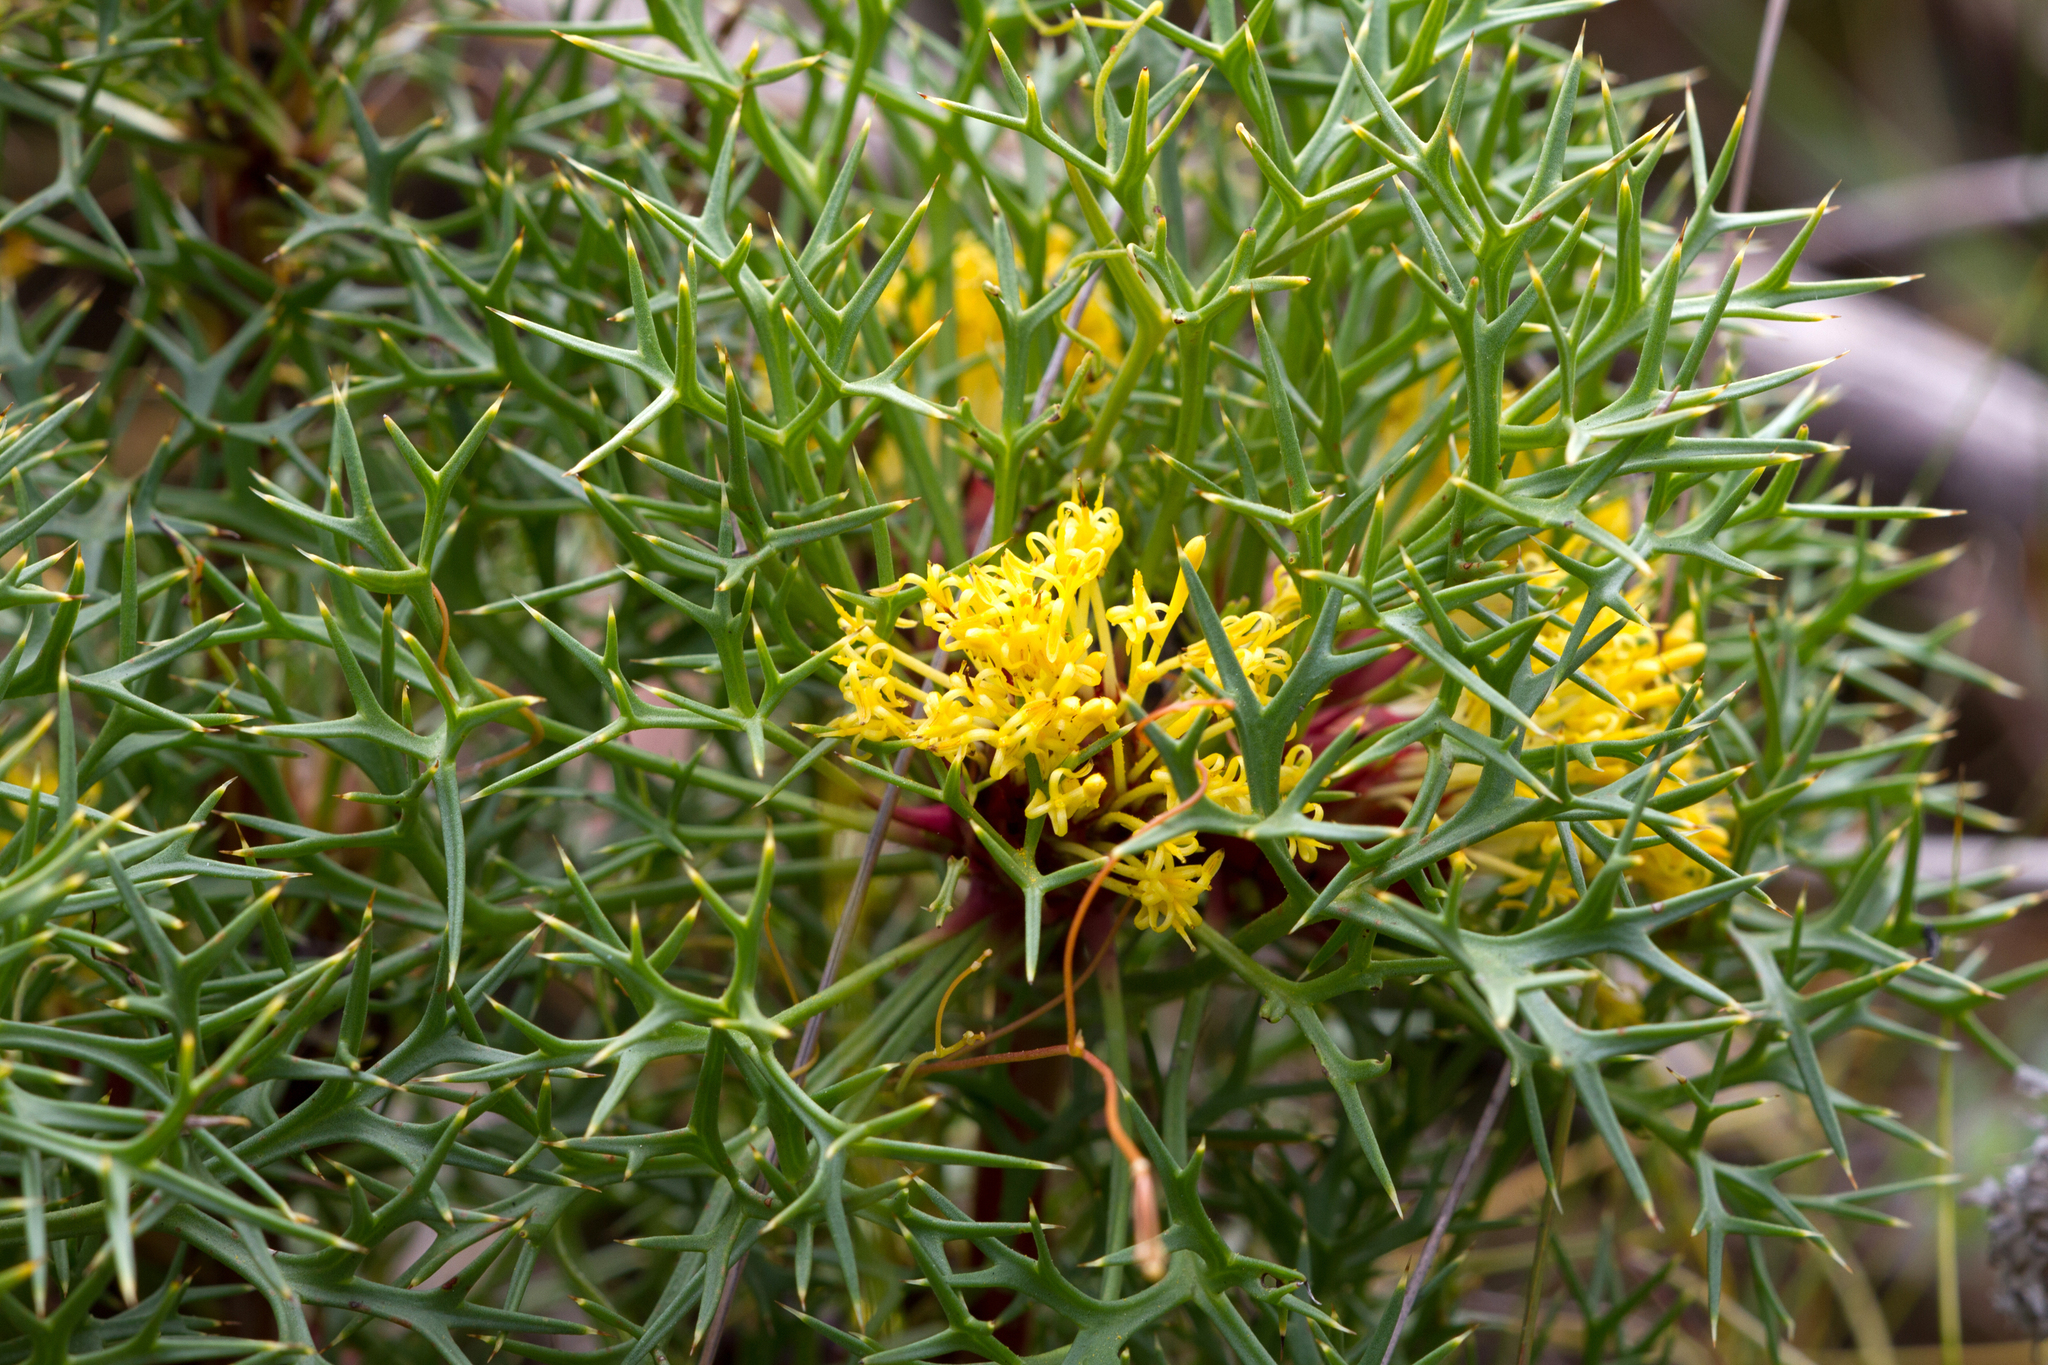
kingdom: Plantae
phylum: Tracheophyta
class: Magnoliopsida
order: Proteales
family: Proteaceae
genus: Isopogon
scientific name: Isopogon ceratophyllus
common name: Horny cone-bush
